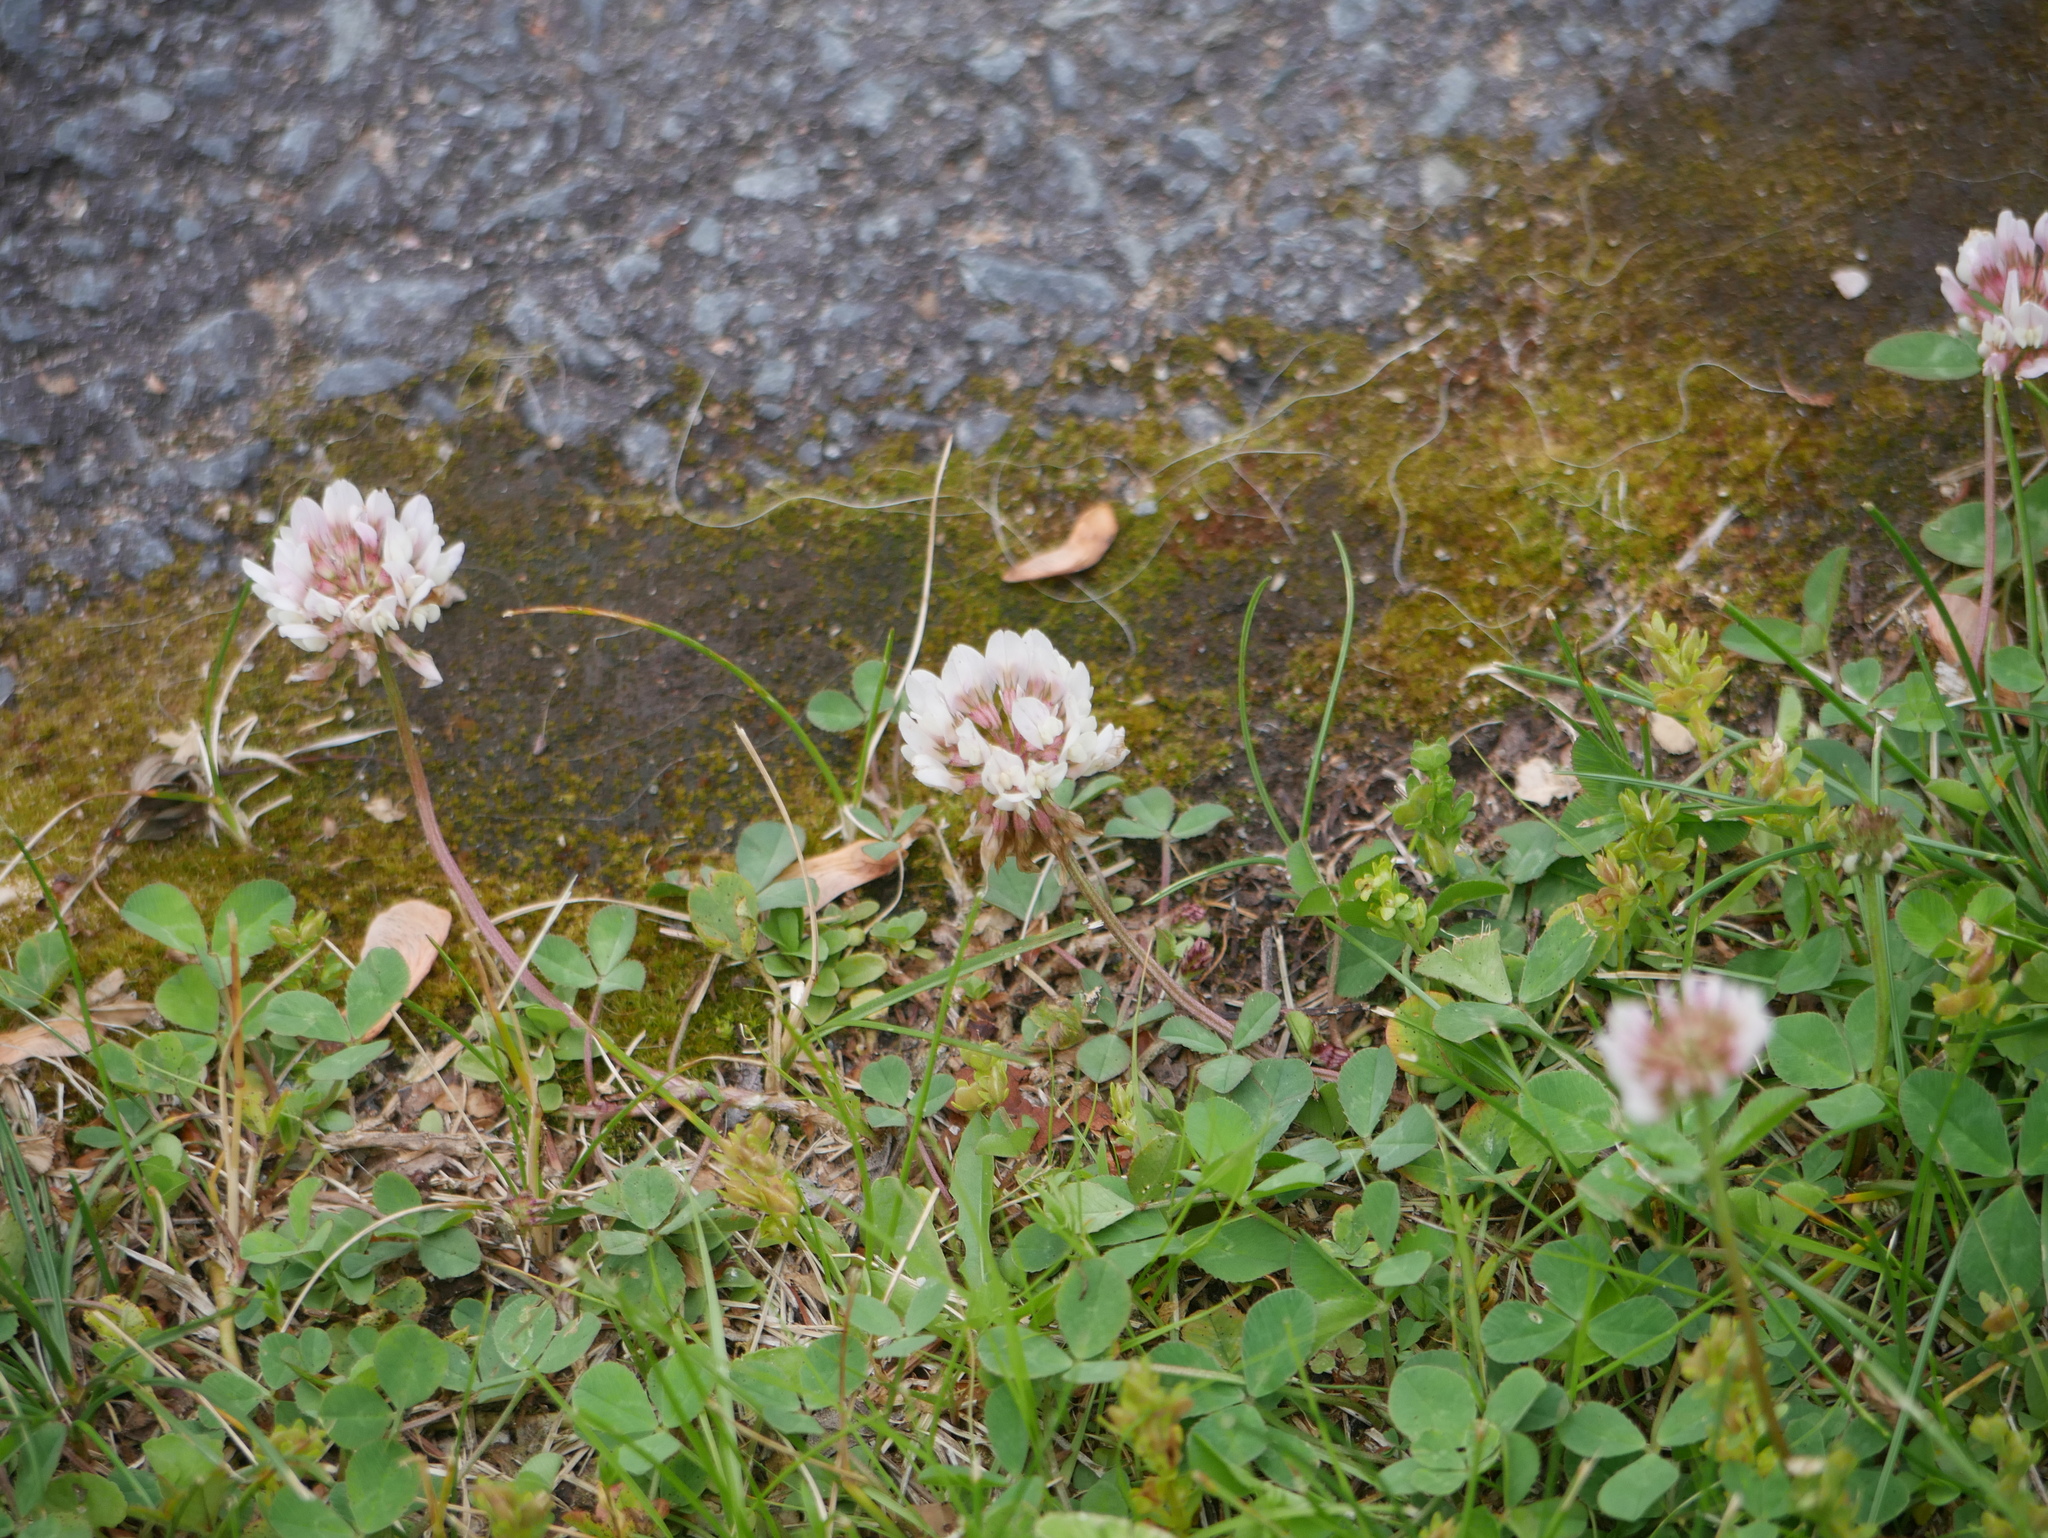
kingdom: Plantae
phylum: Tracheophyta
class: Magnoliopsida
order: Fabales
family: Fabaceae
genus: Trifolium
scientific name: Trifolium repens
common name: White clover
